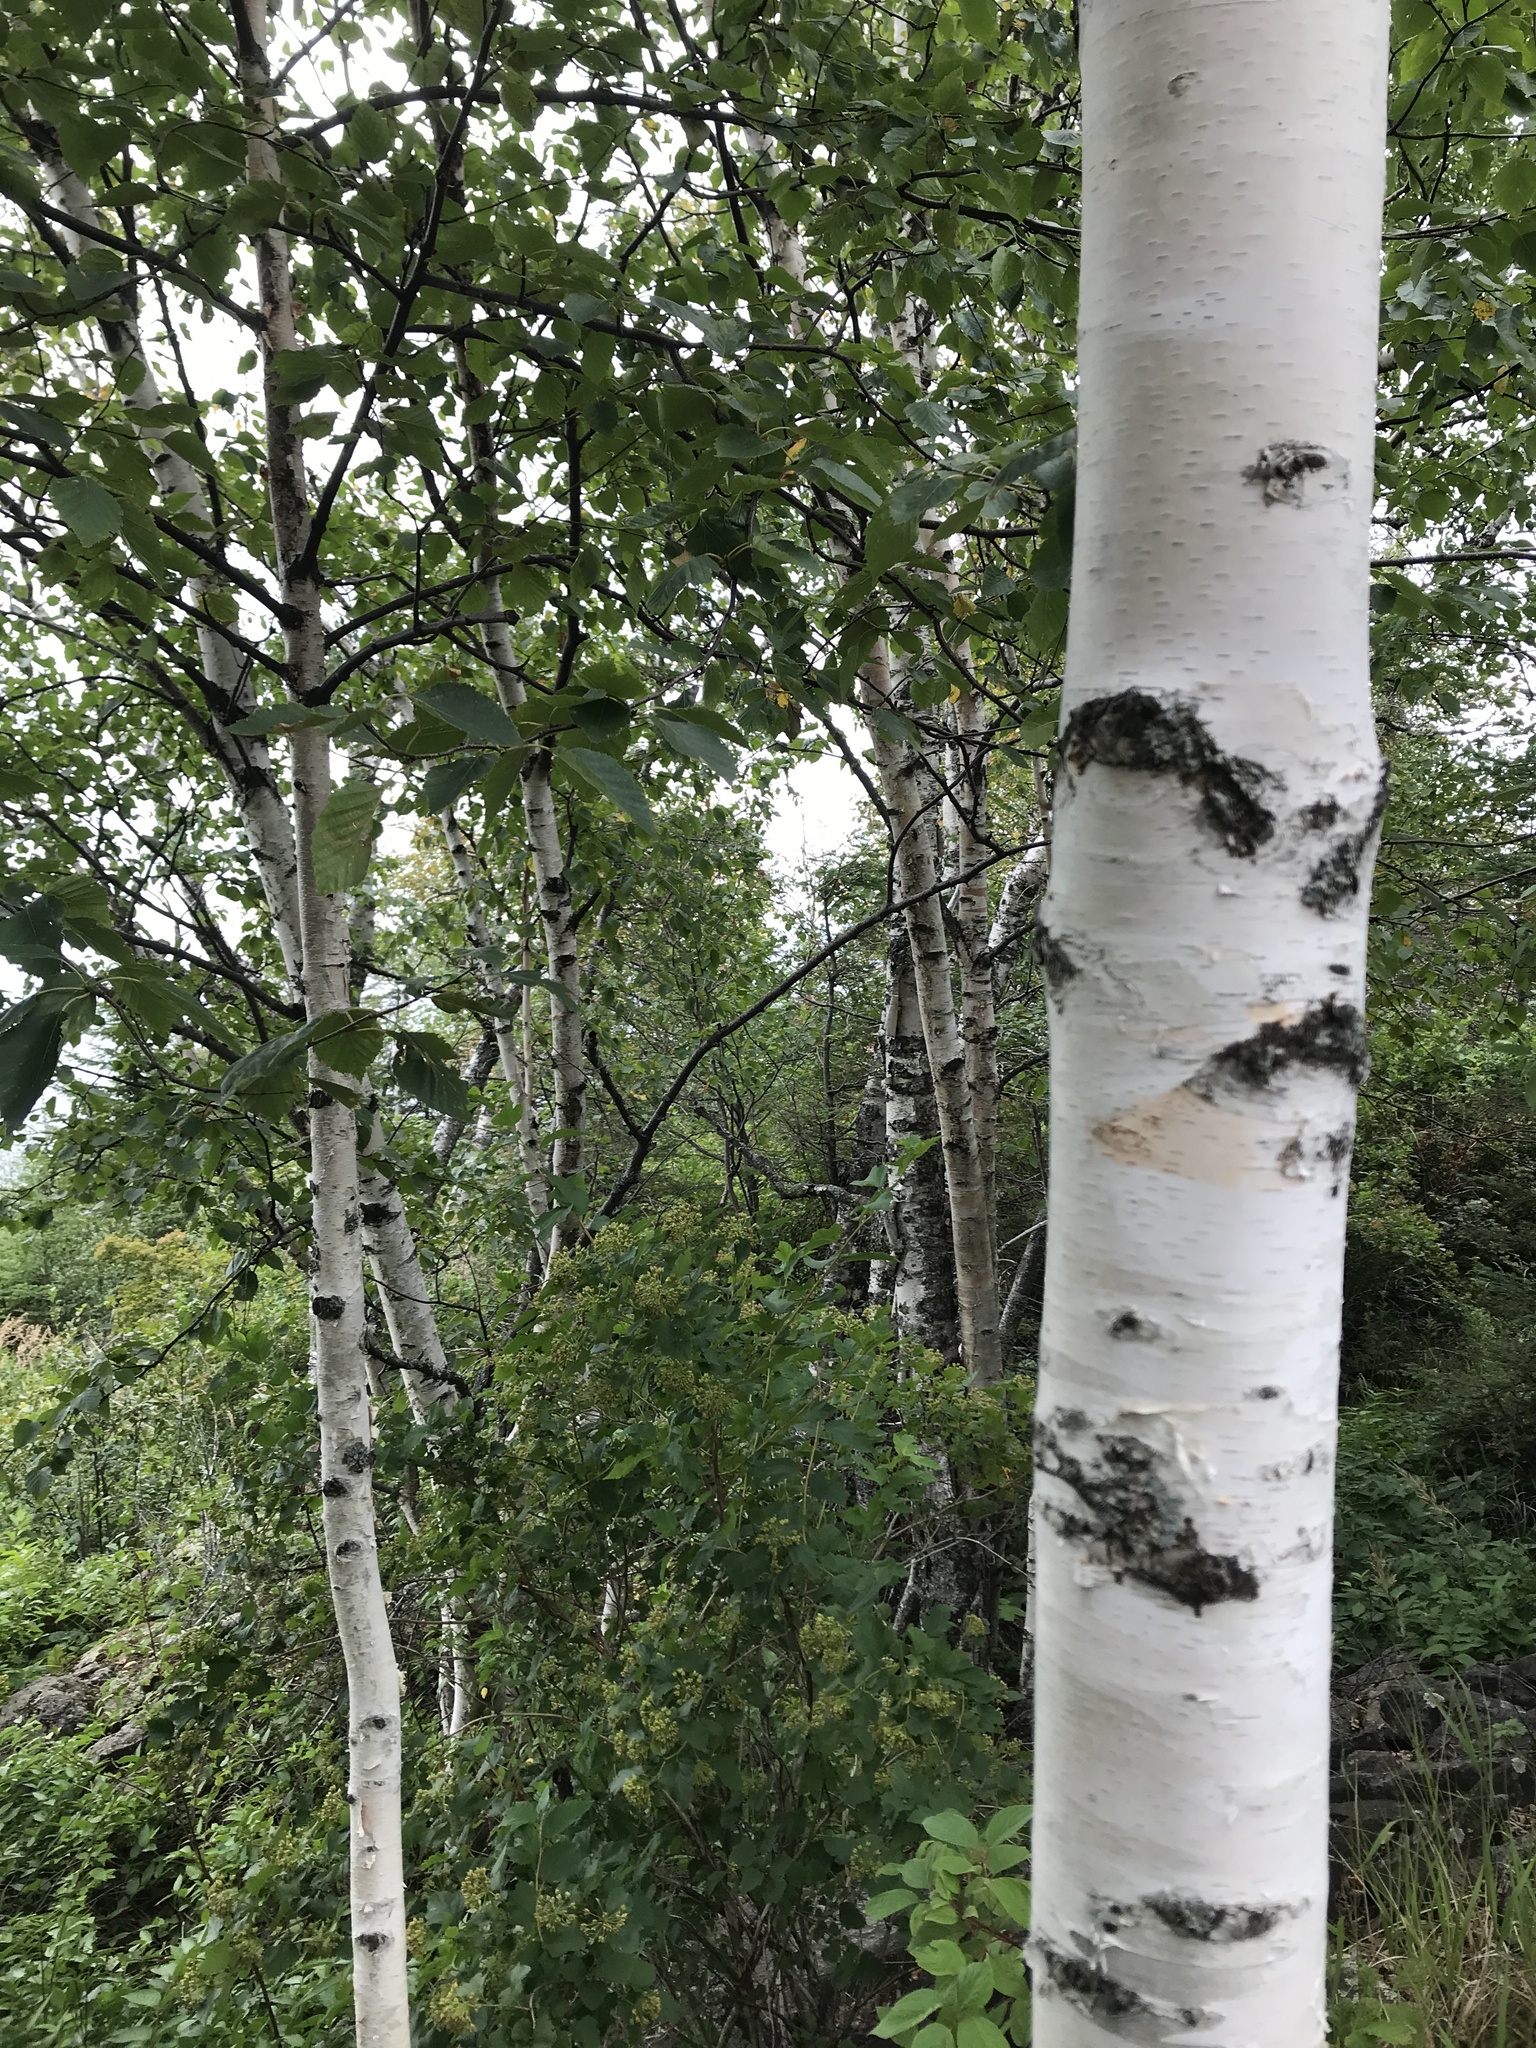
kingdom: Plantae
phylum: Tracheophyta
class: Magnoliopsida
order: Fagales
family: Betulaceae
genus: Betula
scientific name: Betula papyrifera
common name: Paper birch
